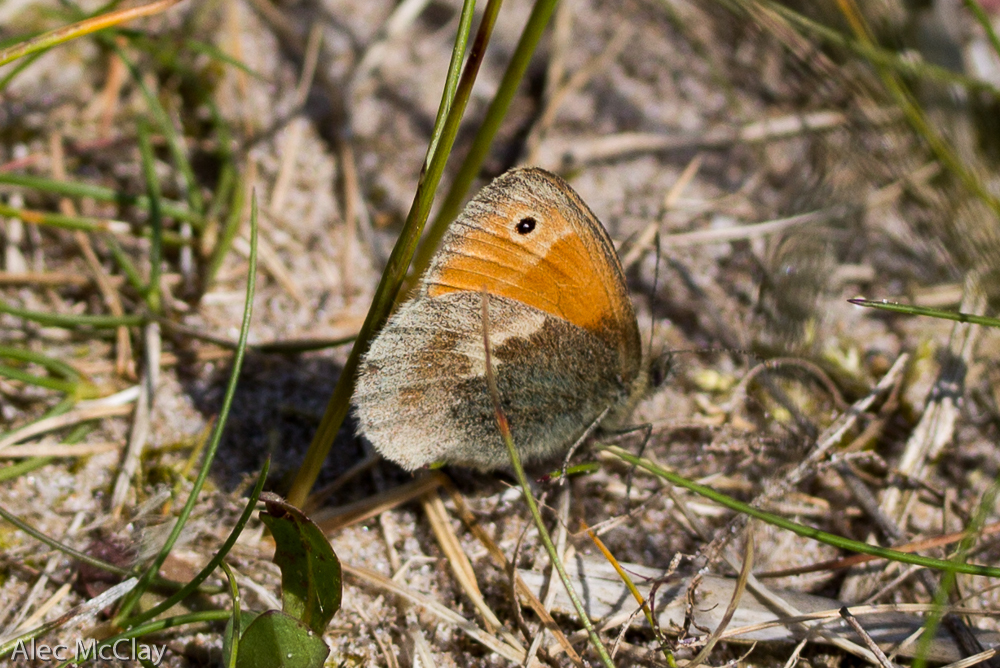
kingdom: Animalia
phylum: Arthropoda
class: Insecta
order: Lepidoptera
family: Nymphalidae
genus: Coenonympha
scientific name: Coenonympha pamphilus
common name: Small heath
